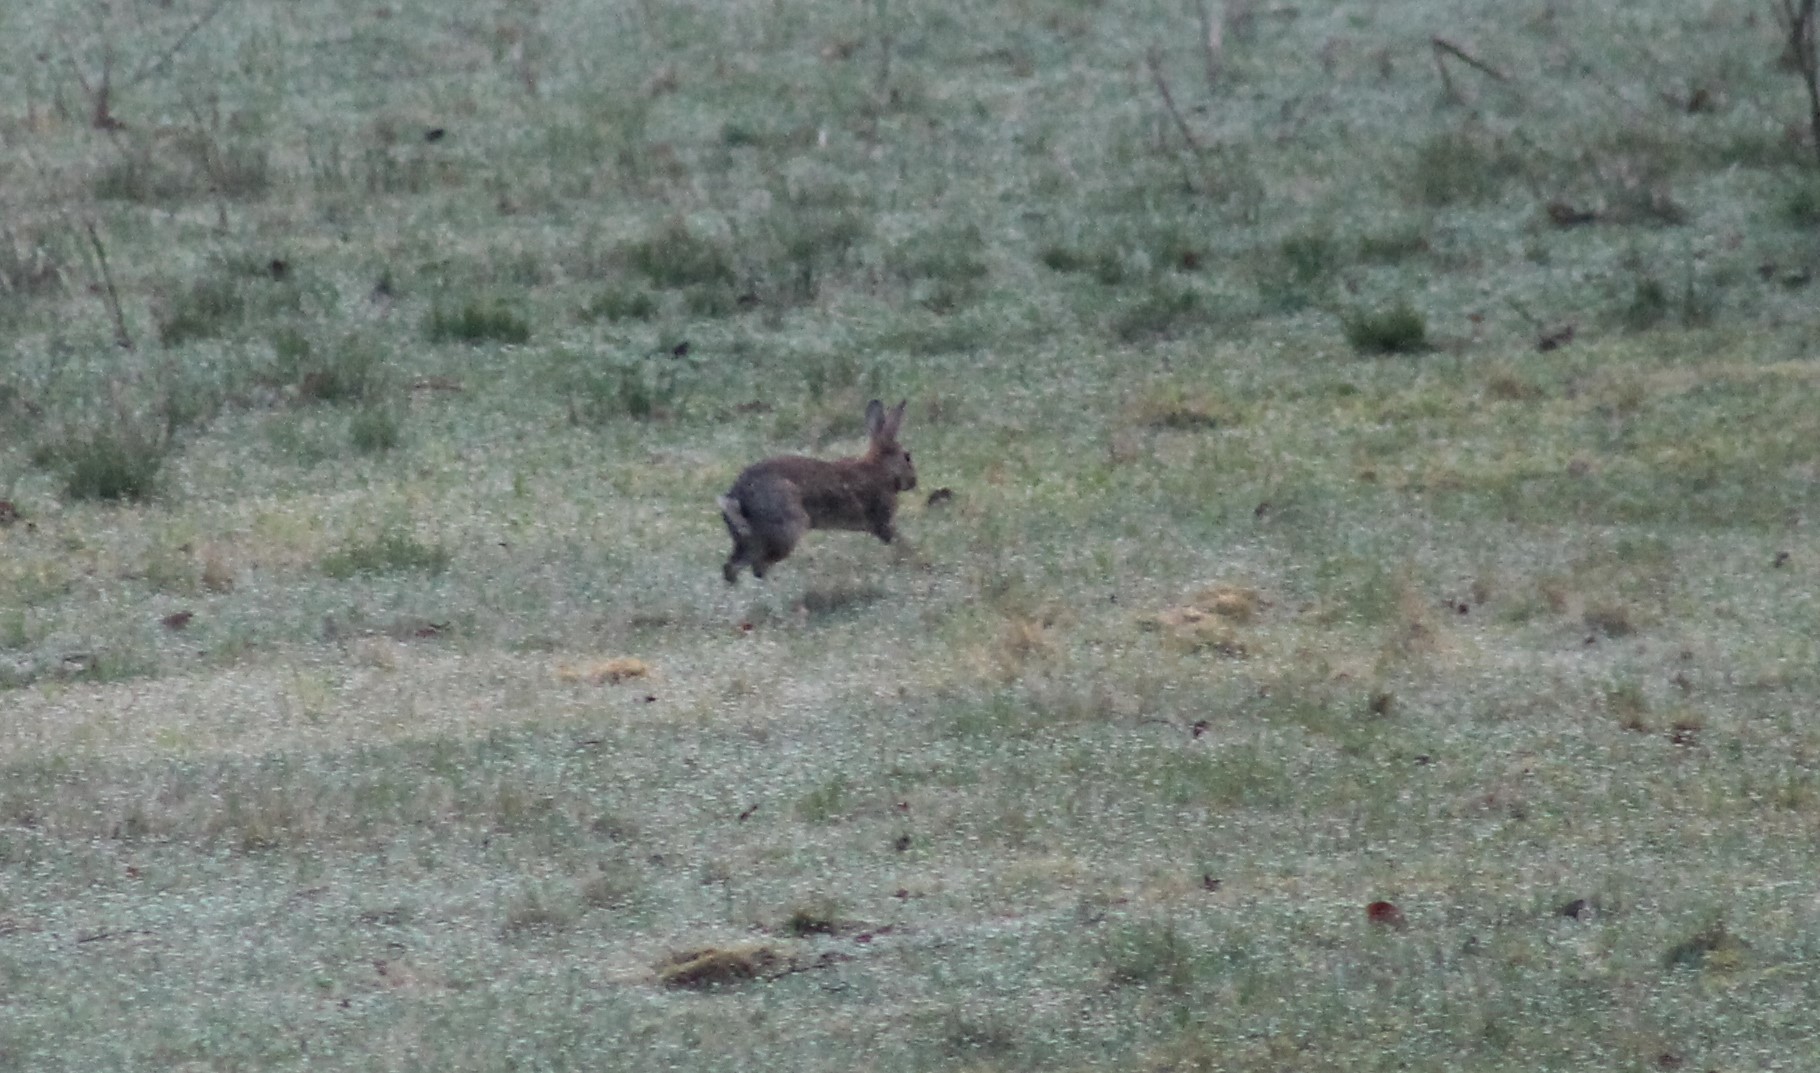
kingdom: Animalia
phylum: Chordata
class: Mammalia
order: Lagomorpha
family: Leporidae
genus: Oryctolagus
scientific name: Oryctolagus cuniculus
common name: European rabbit
